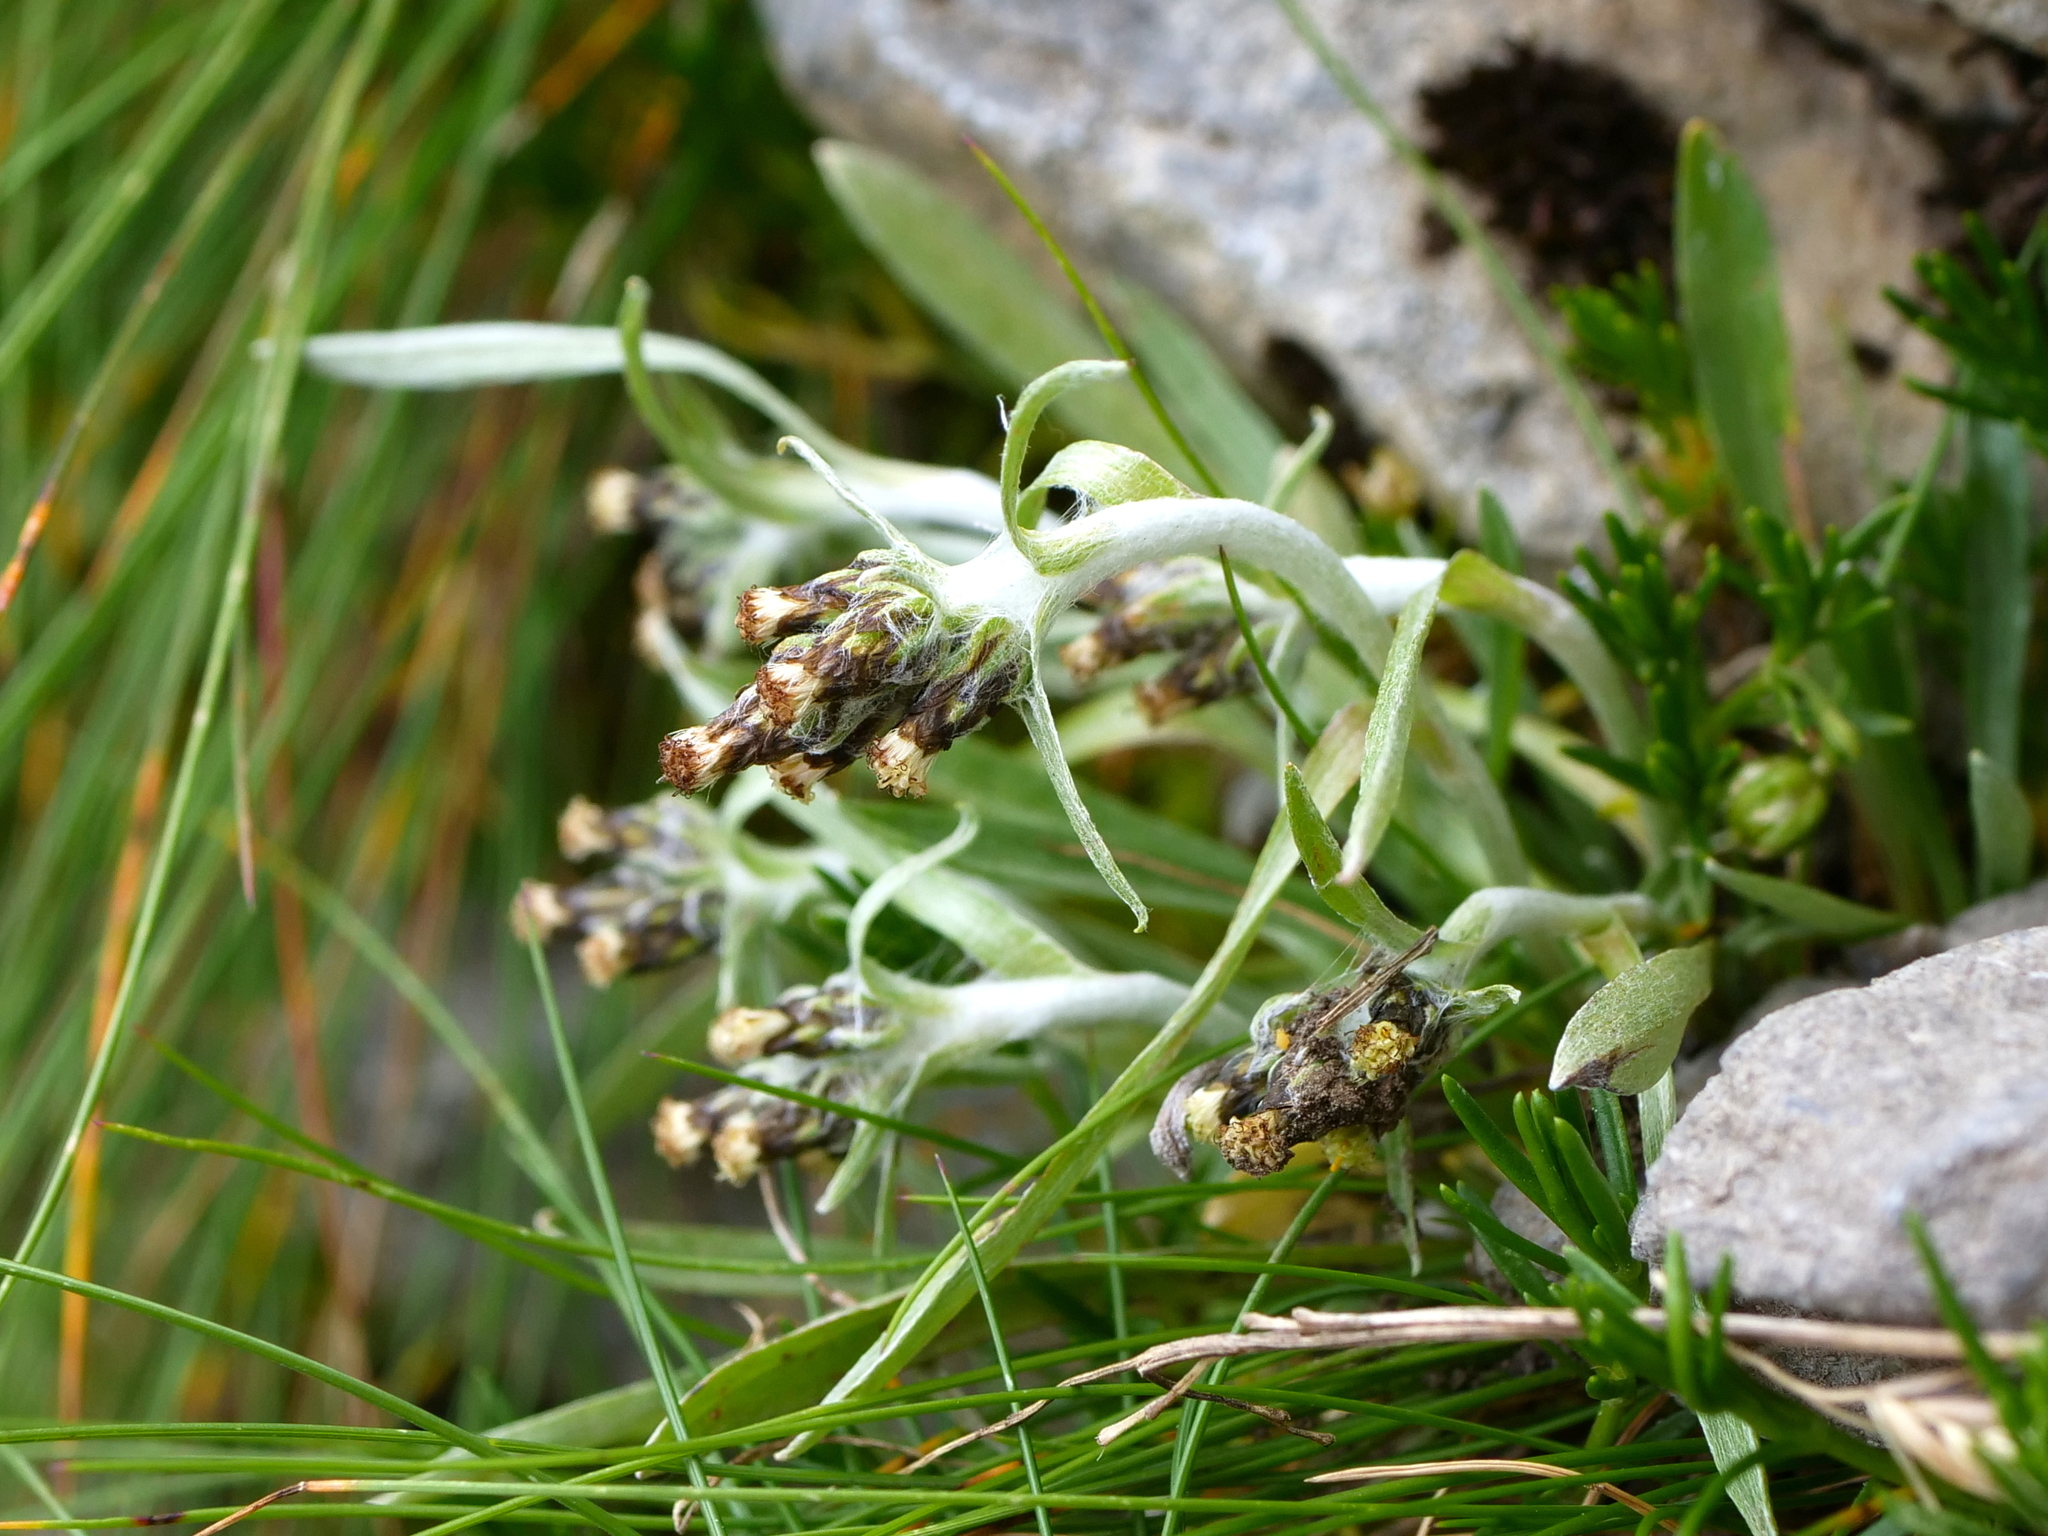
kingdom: Plantae
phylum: Tracheophyta
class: Magnoliopsida
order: Asterales
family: Asteraceae
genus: Omalotheca
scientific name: Omalotheca hoppeana
